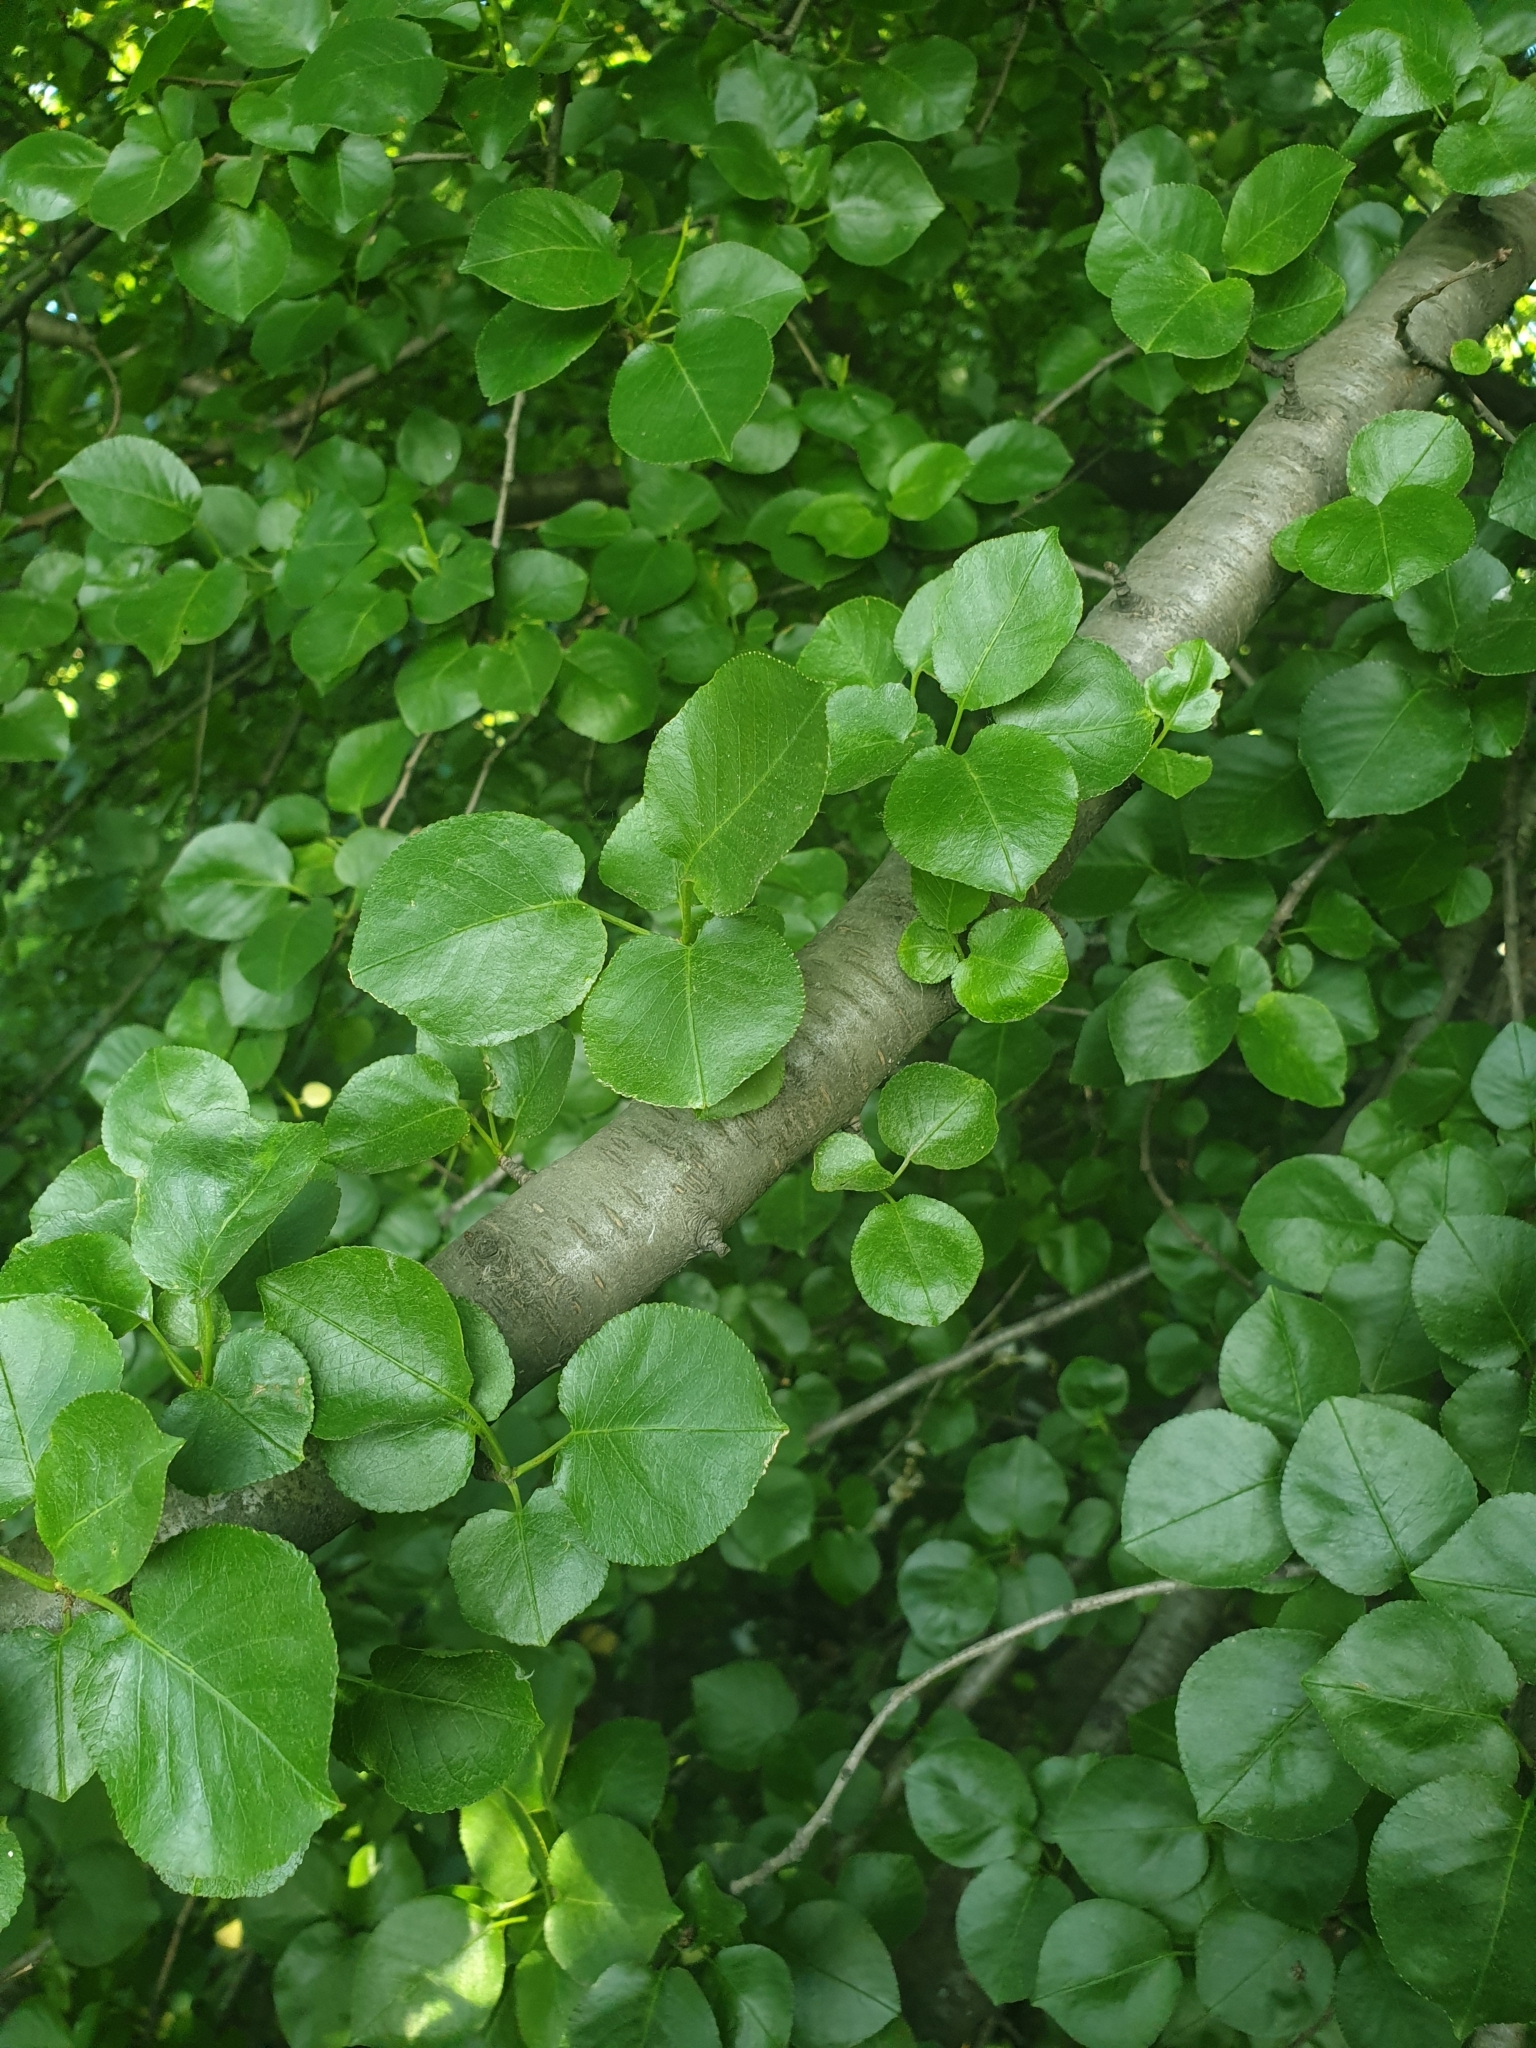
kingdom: Plantae
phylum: Tracheophyta
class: Magnoliopsida
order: Rosales
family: Rosaceae
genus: Prunus
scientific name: Prunus mahaleb
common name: Mahaleb cherry
